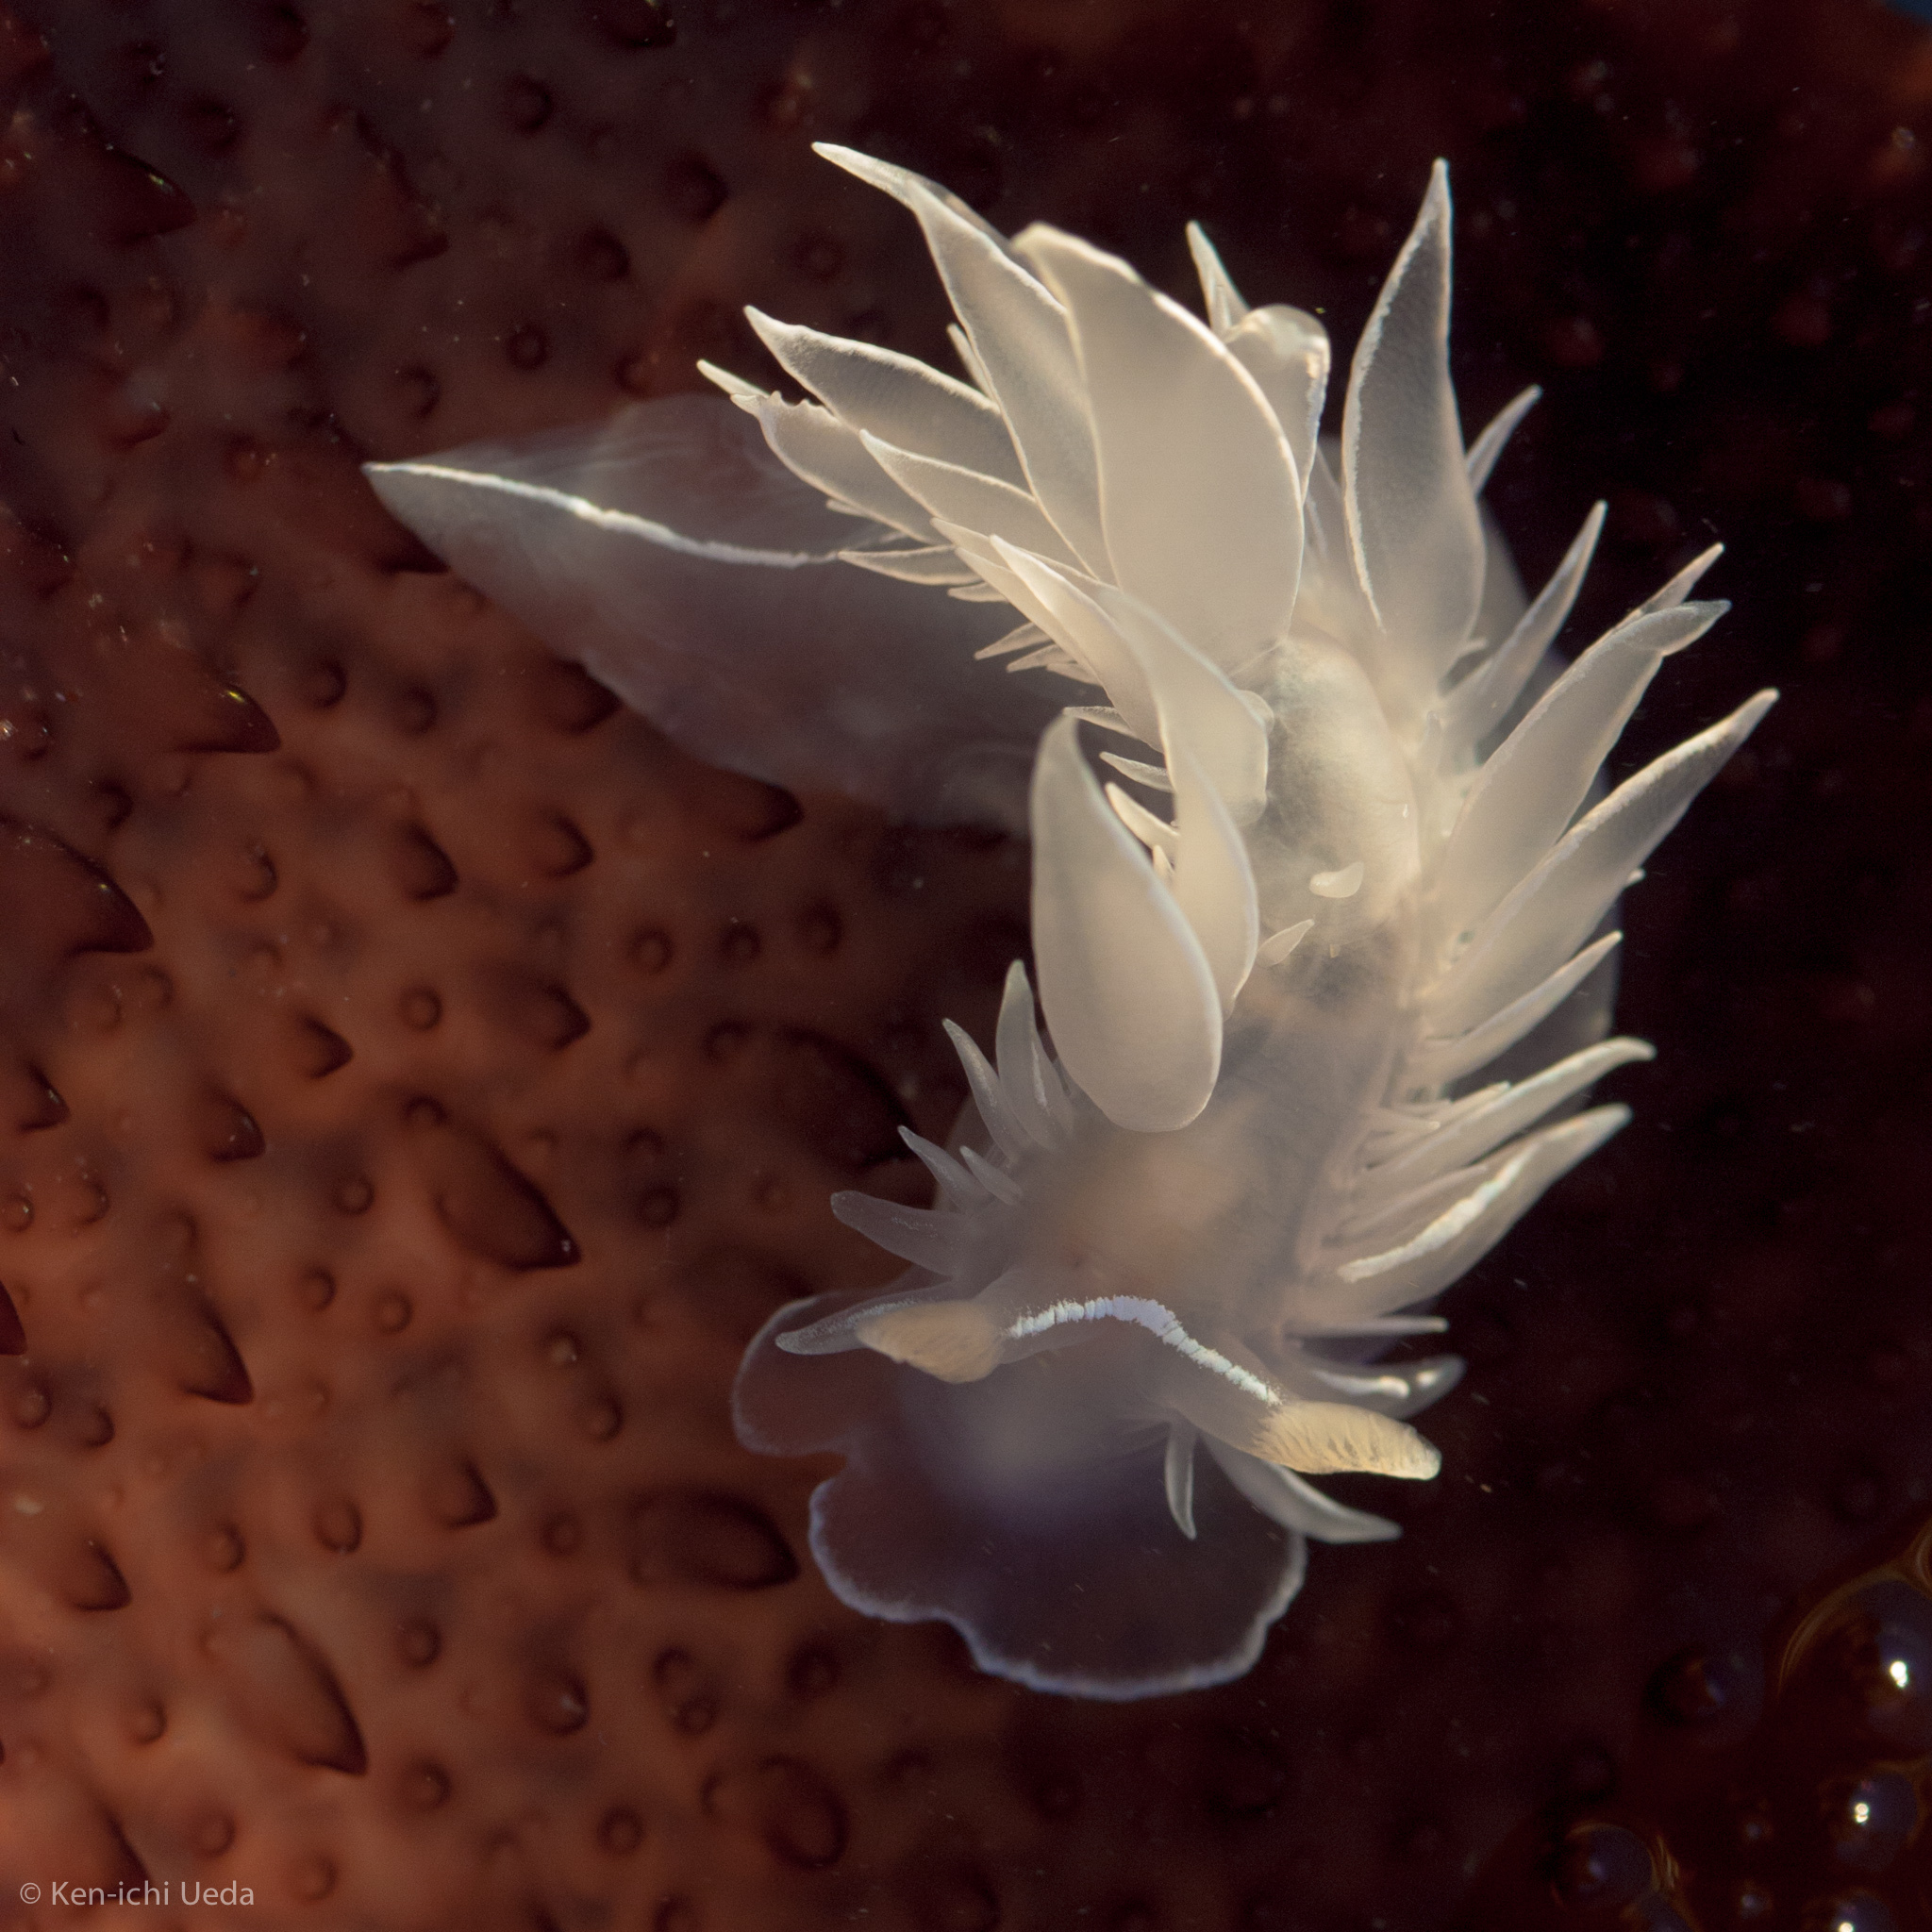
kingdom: Animalia
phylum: Mollusca
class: Gastropoda
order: Nudibranchia
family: Dironidae
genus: Dirona
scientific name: Dirona albolineata
